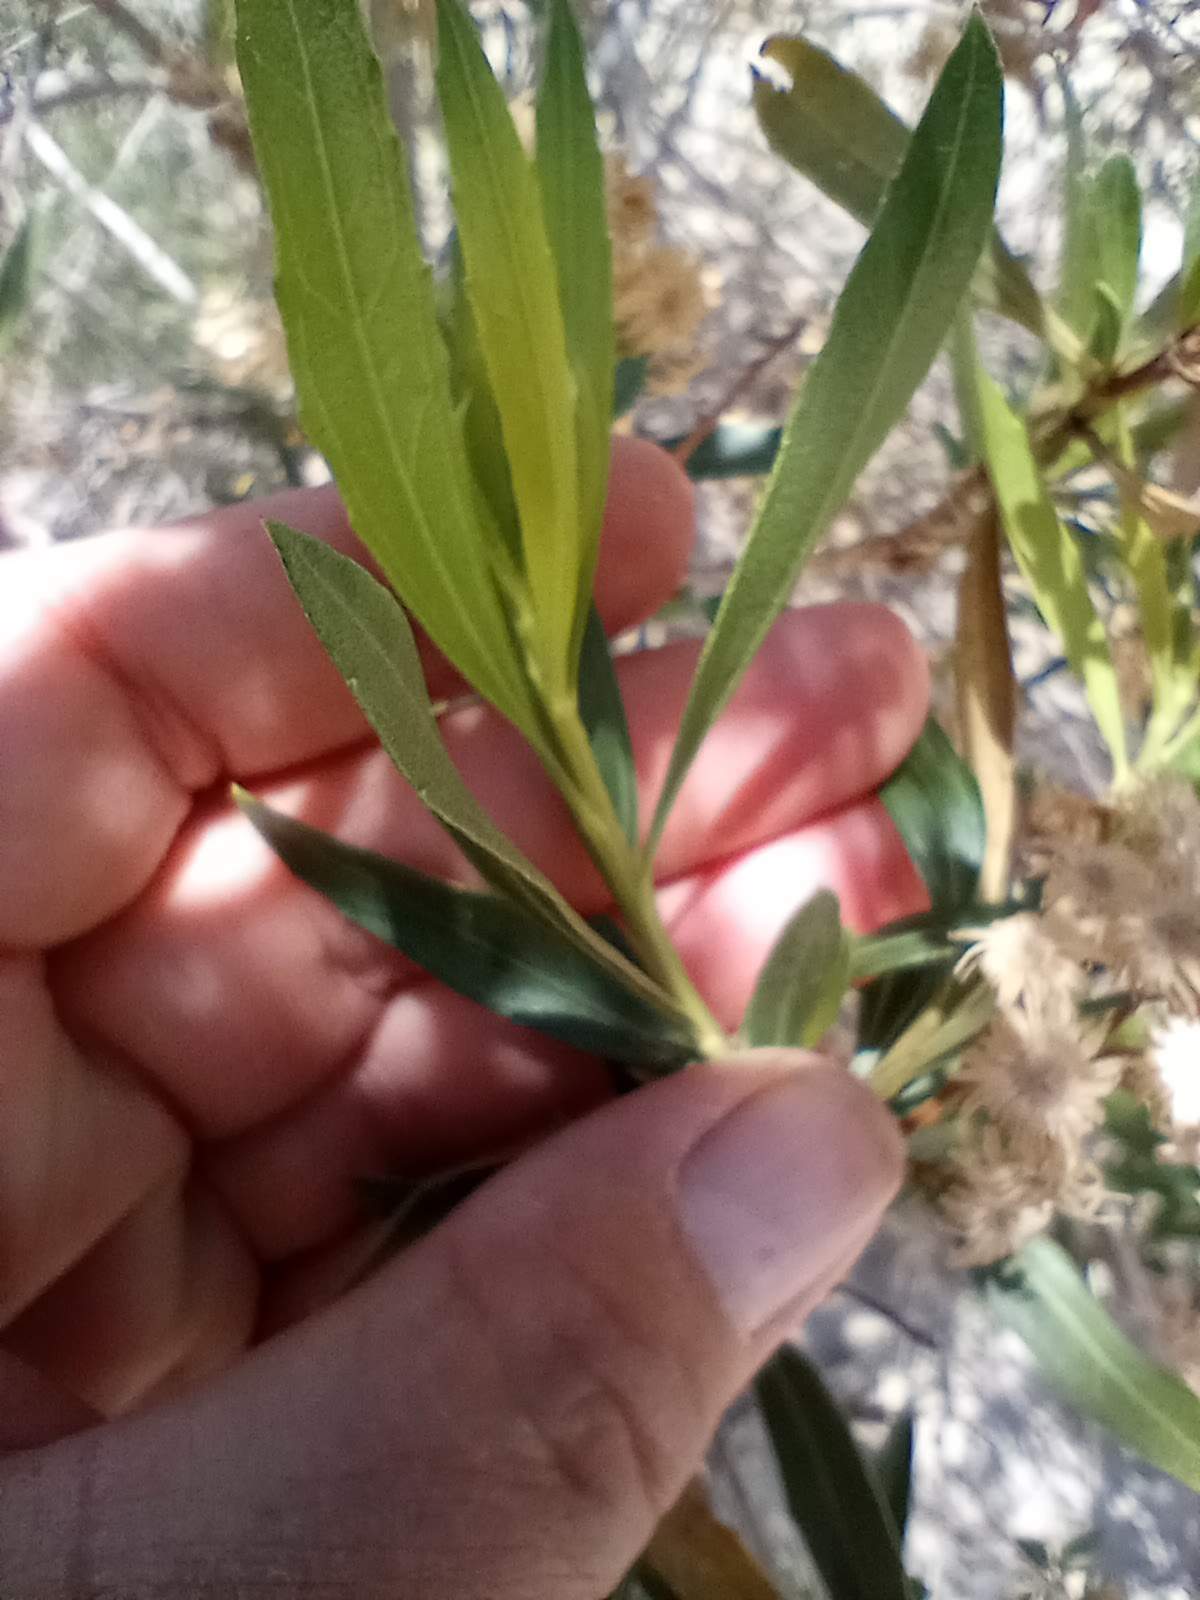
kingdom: Plantae
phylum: Tracheophyta
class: Magnoliopsida
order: Asterales
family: Asteraceae
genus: Baccharis
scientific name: Baccharis salicifolia
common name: Sticky baccharis
